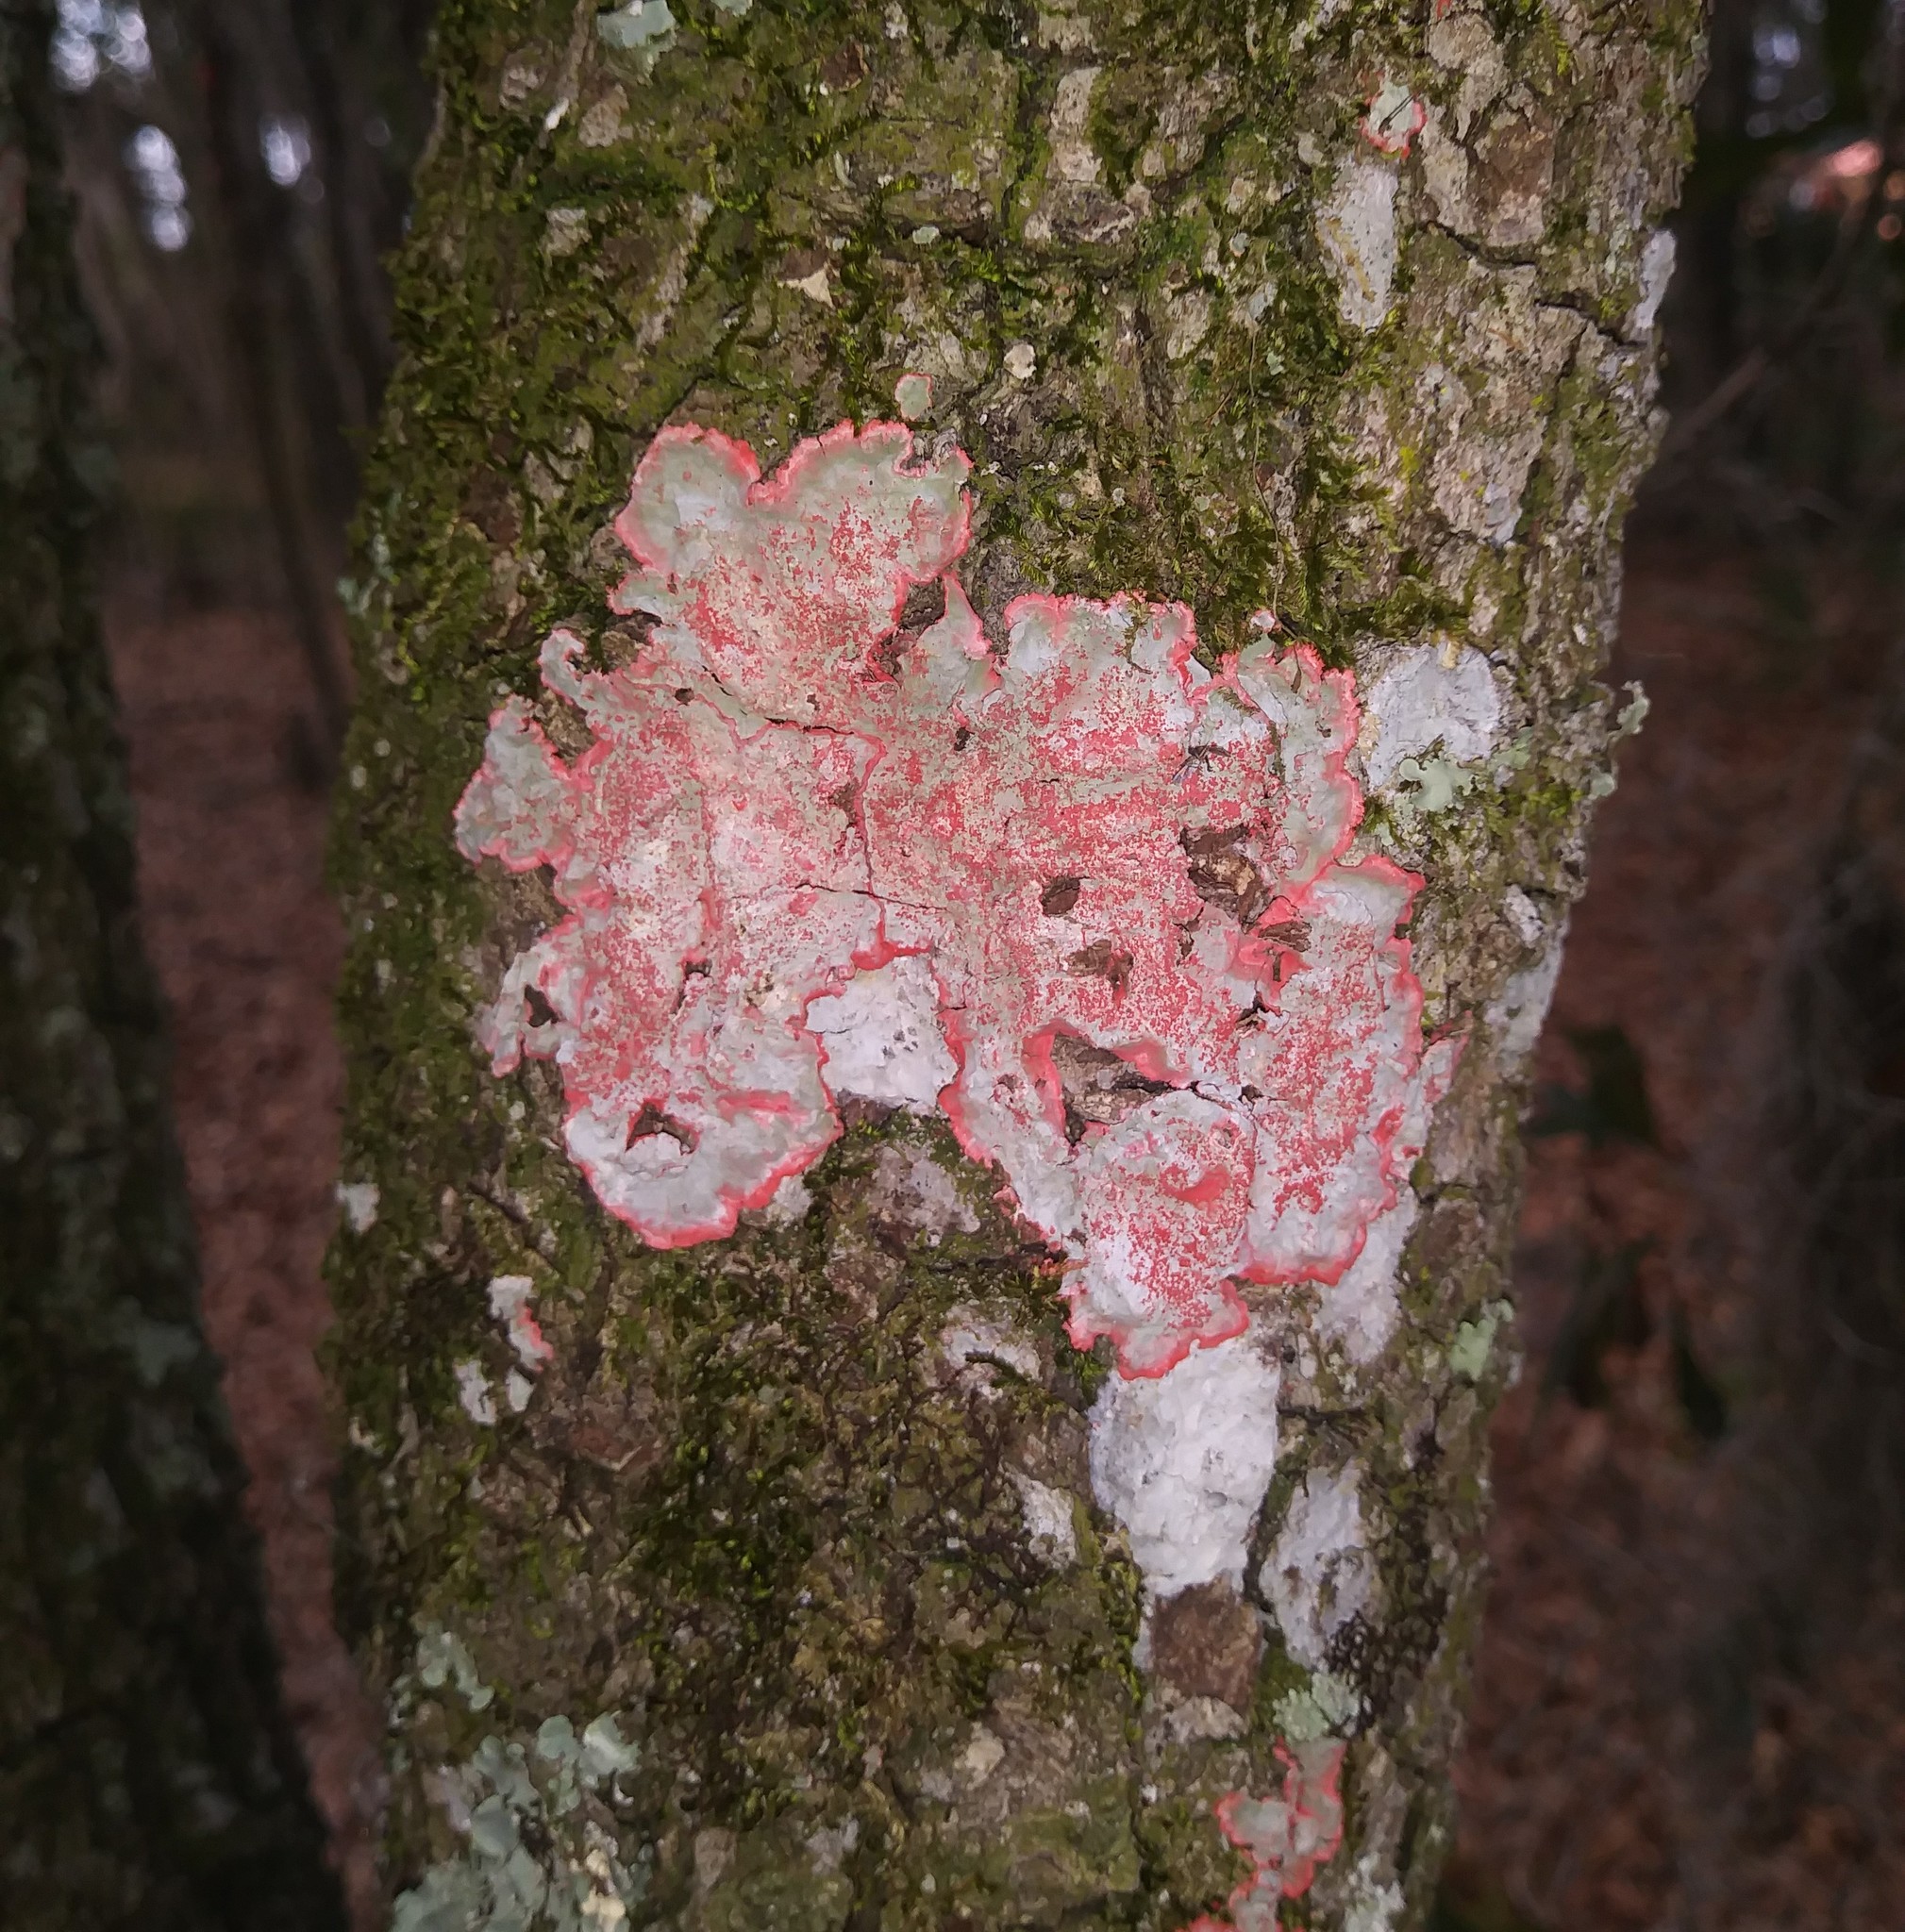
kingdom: Fungi
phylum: Ascomycota
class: Arthoniomycetes
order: Arthoniales
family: Arthoniaceae
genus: Herpothallon
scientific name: Herpothallon rubrocinctum
